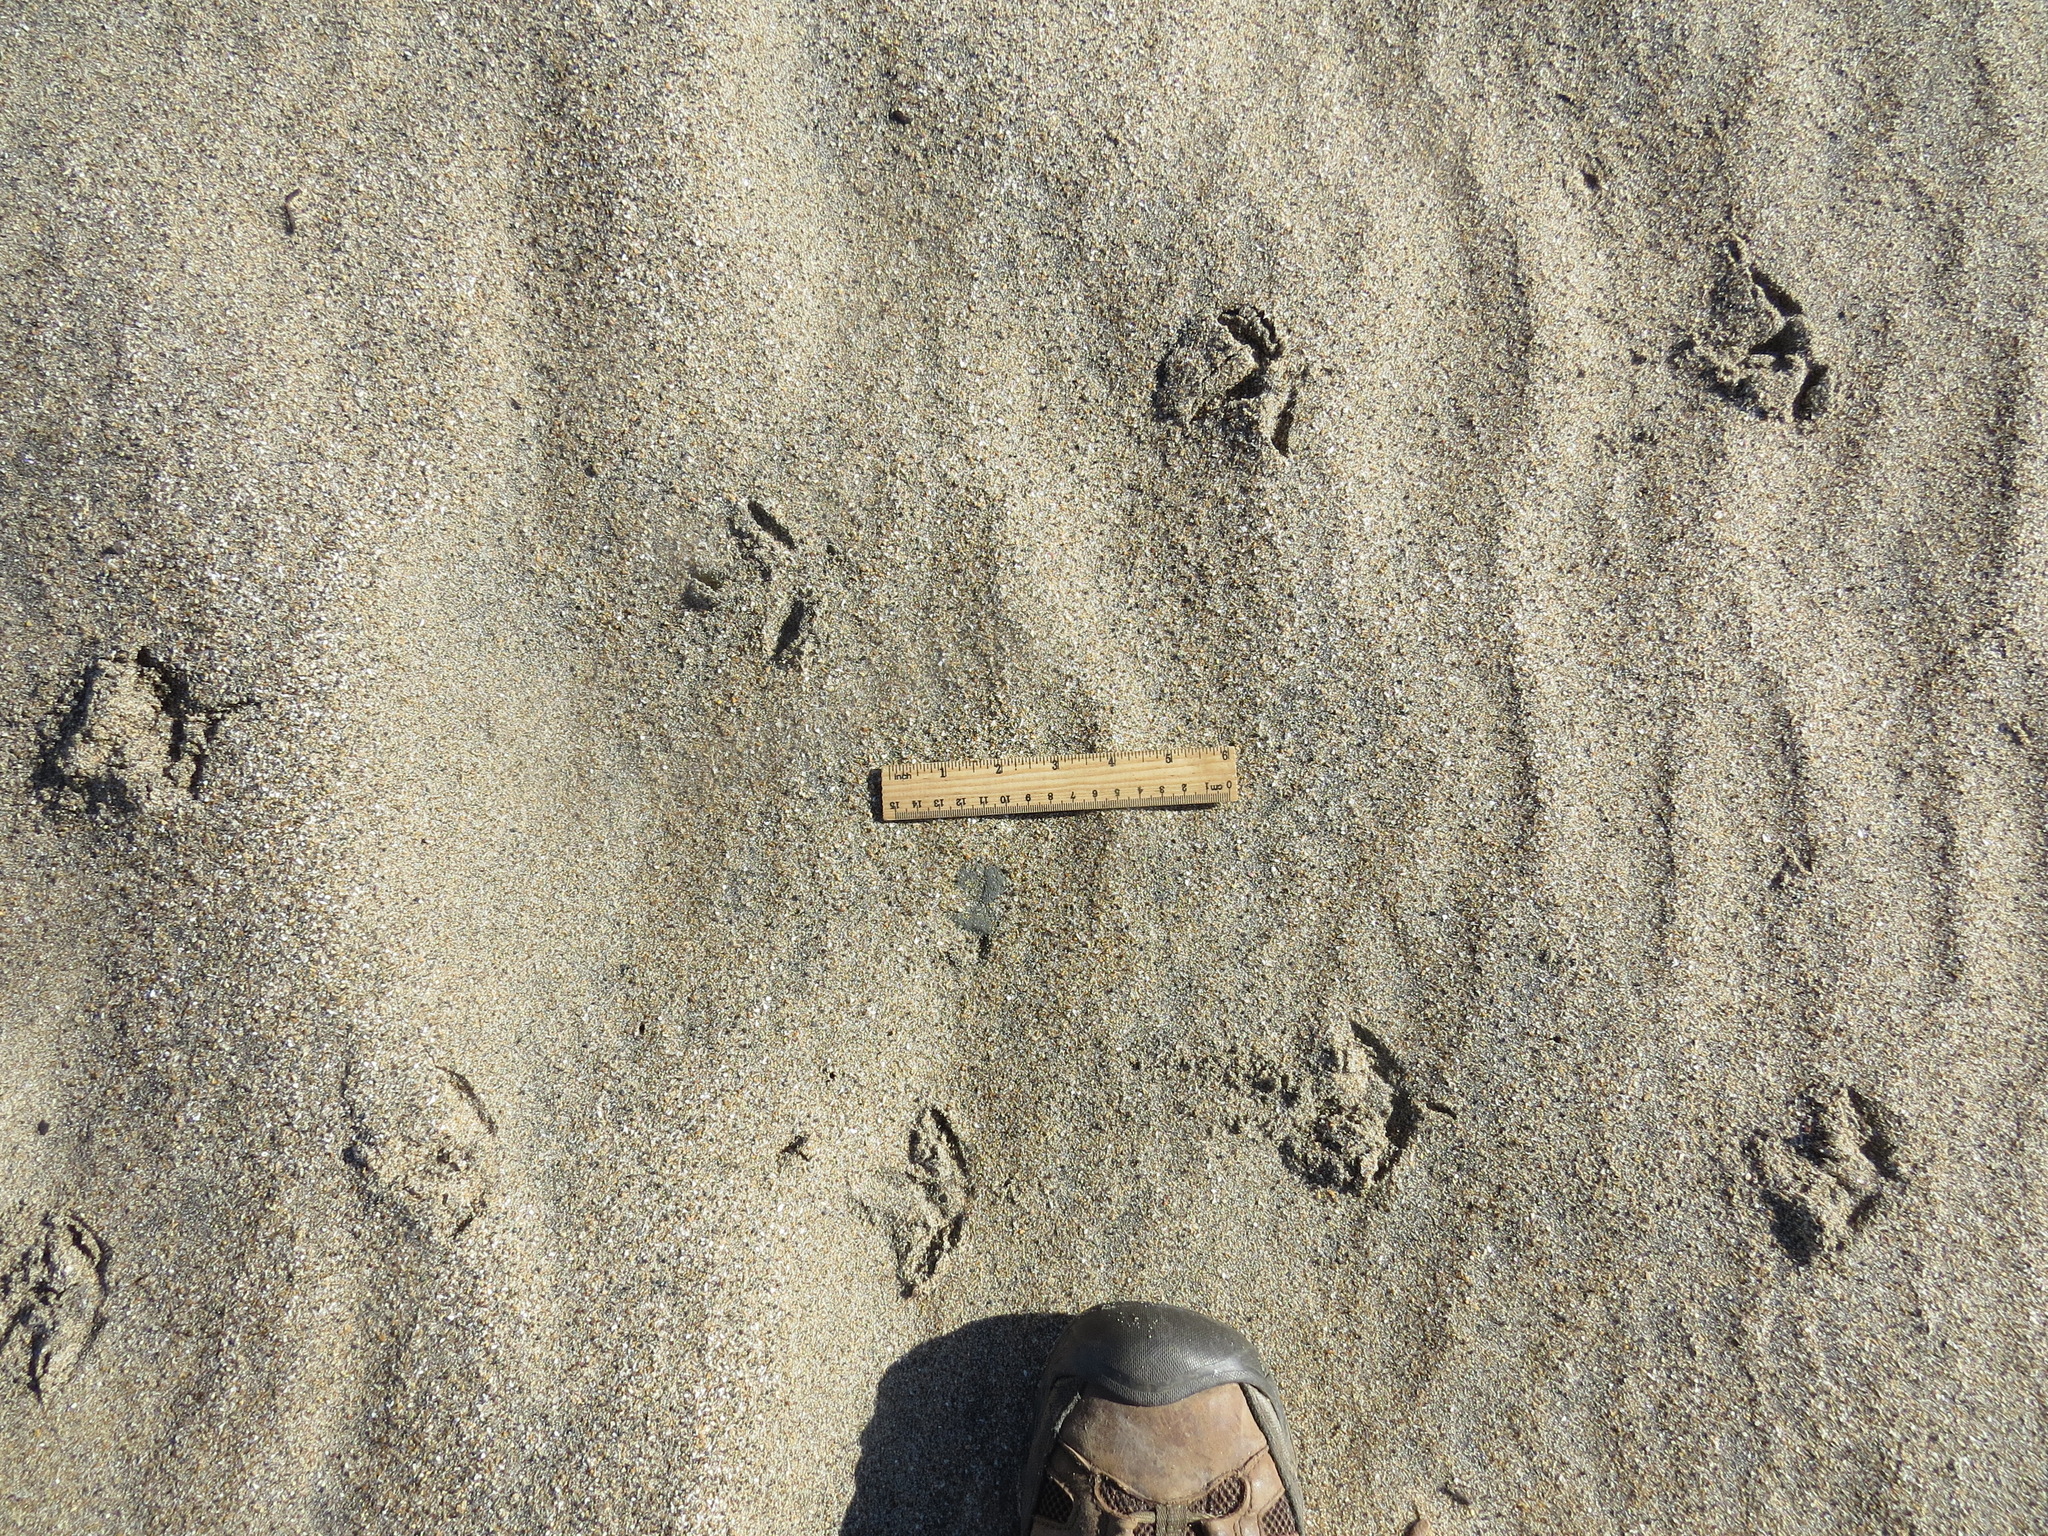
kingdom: Animalia
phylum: Chordata
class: Aves
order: Charadriiformes
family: Scolopacidae
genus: Numenius
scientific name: Numenius americanus
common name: Long-billed curlew
